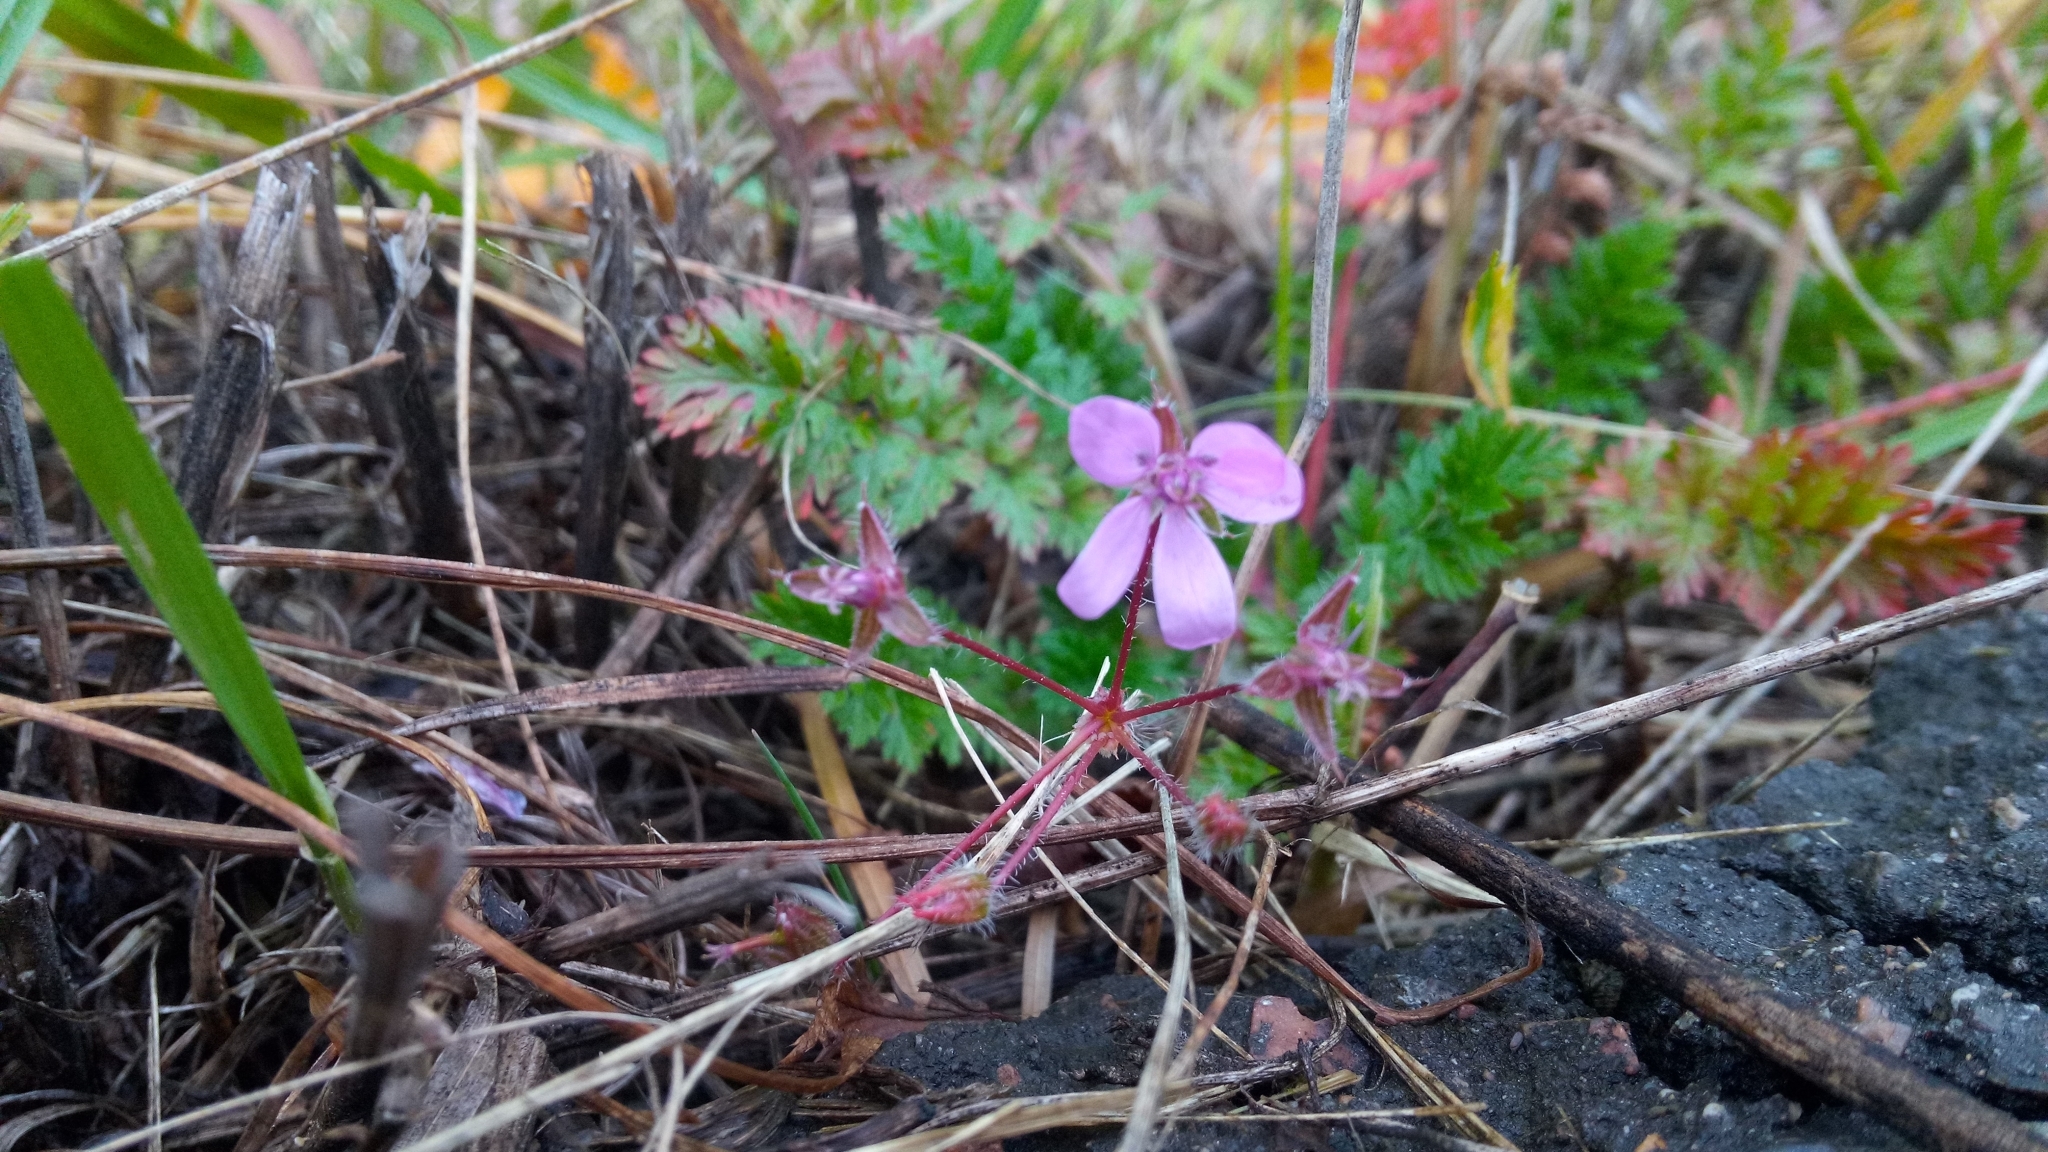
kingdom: Plantae
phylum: Tracheophyta
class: Magnoliopsida
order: Geraniales
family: Geraniaceae
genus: Erodium
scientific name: Erodium cicutarium
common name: Common stork's-bill
